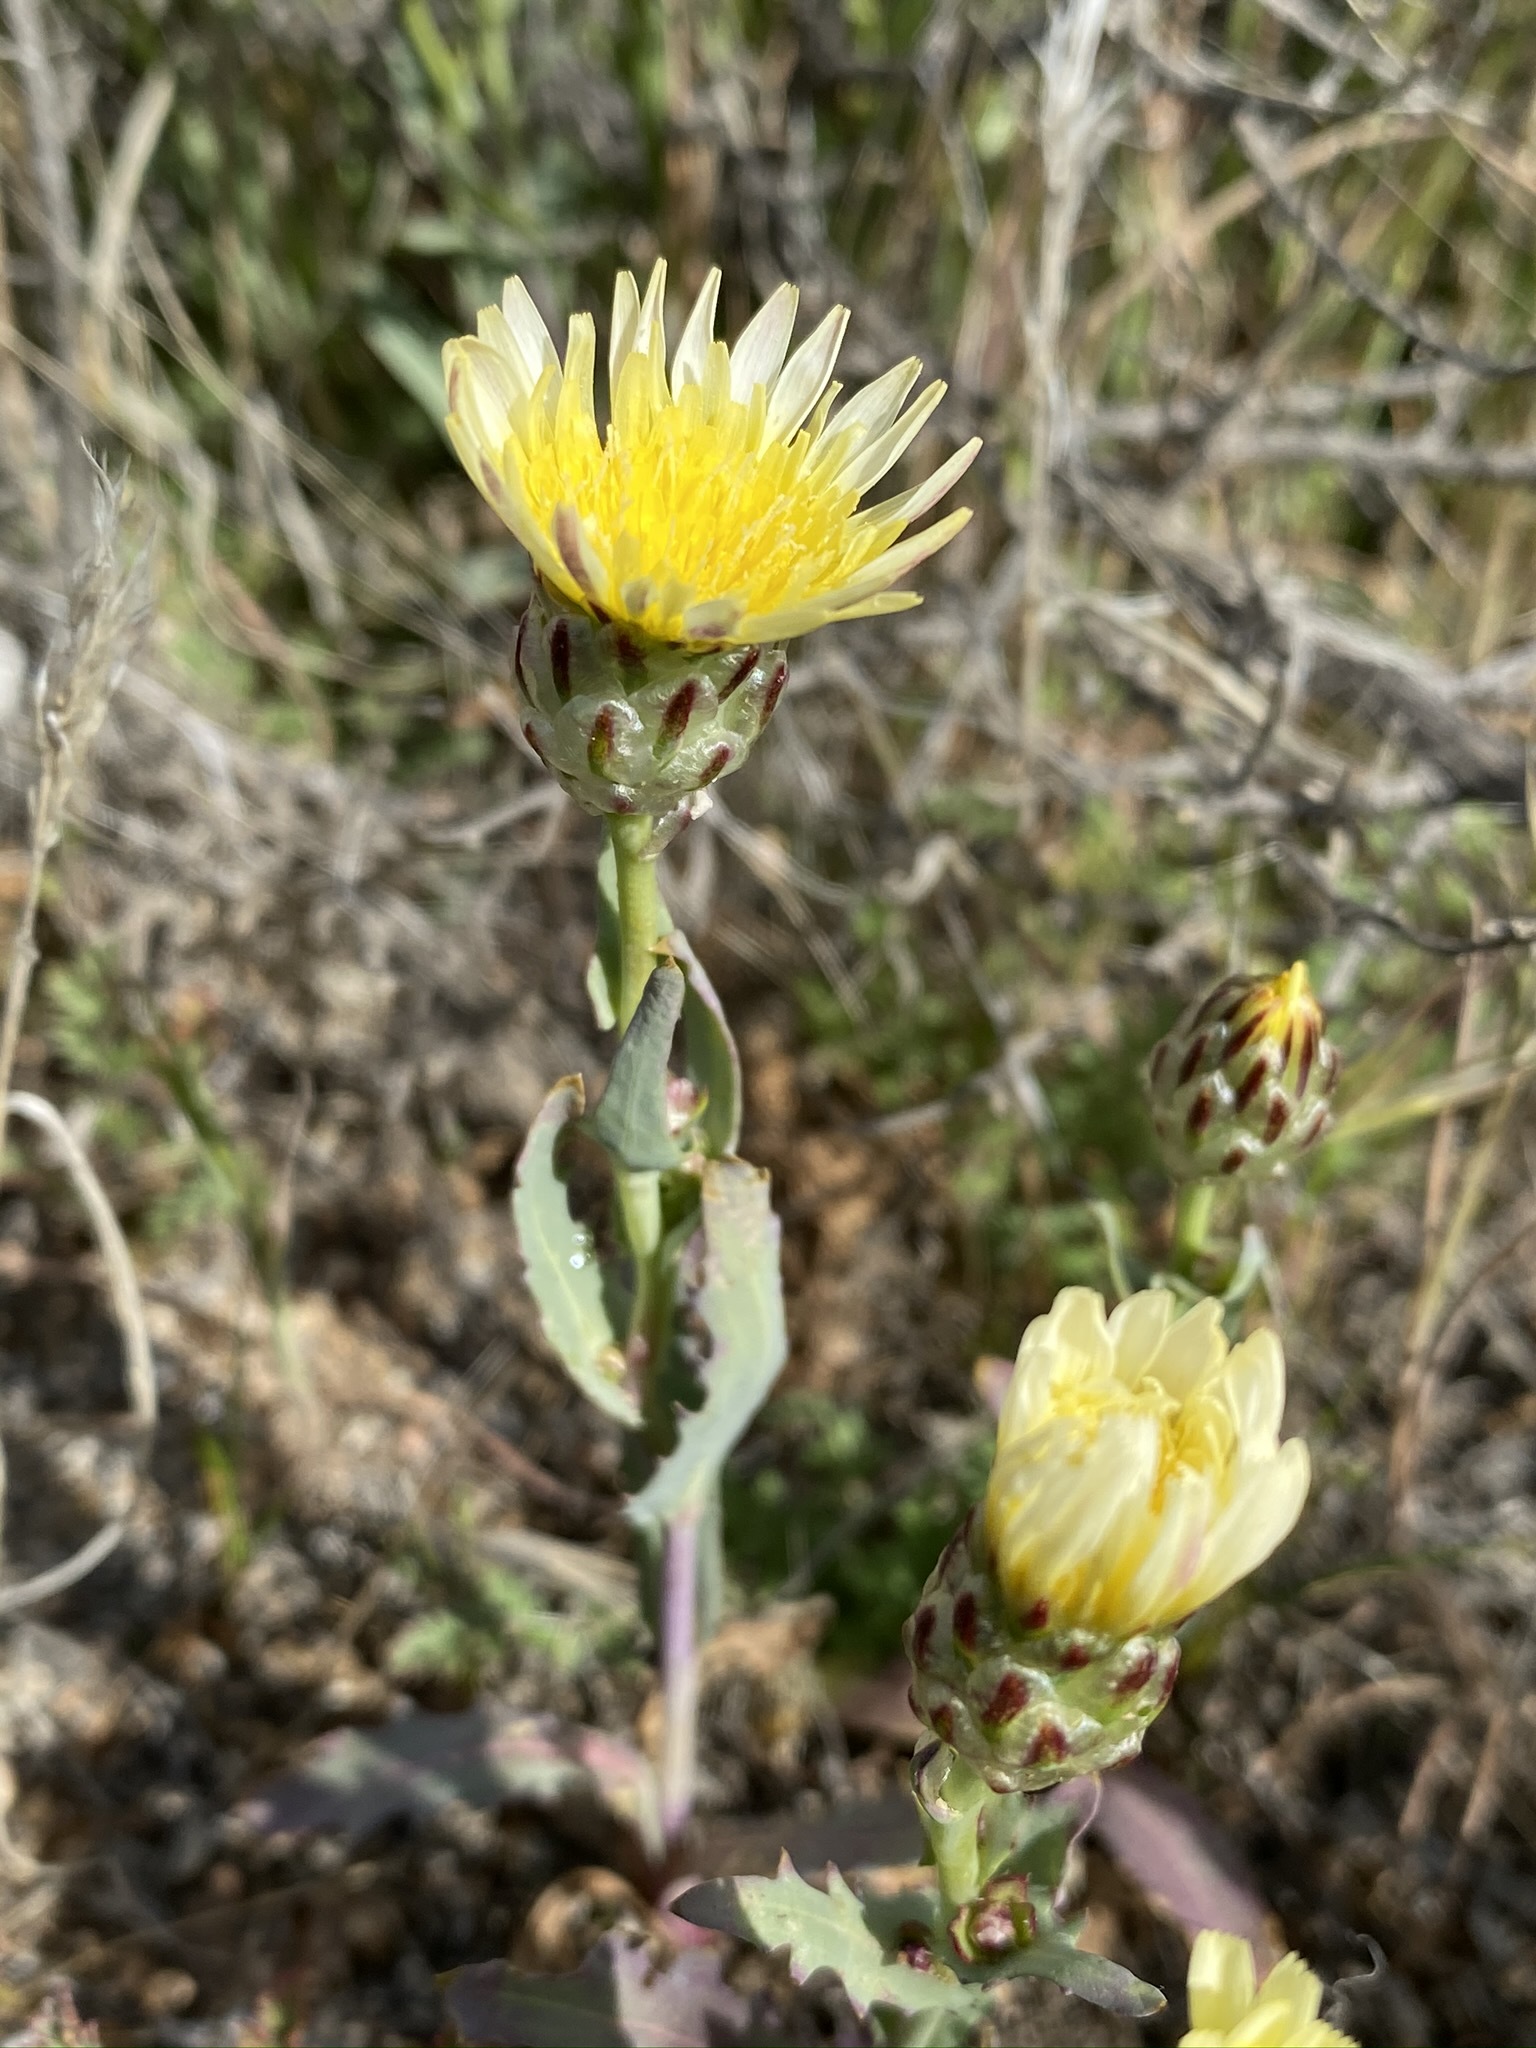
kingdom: Plantae
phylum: Tracheophyta
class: Magnoliopsida
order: Asterales
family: Asteraceae
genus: Malacothrix
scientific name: Malacothrix coulteri
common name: Snake's-head
